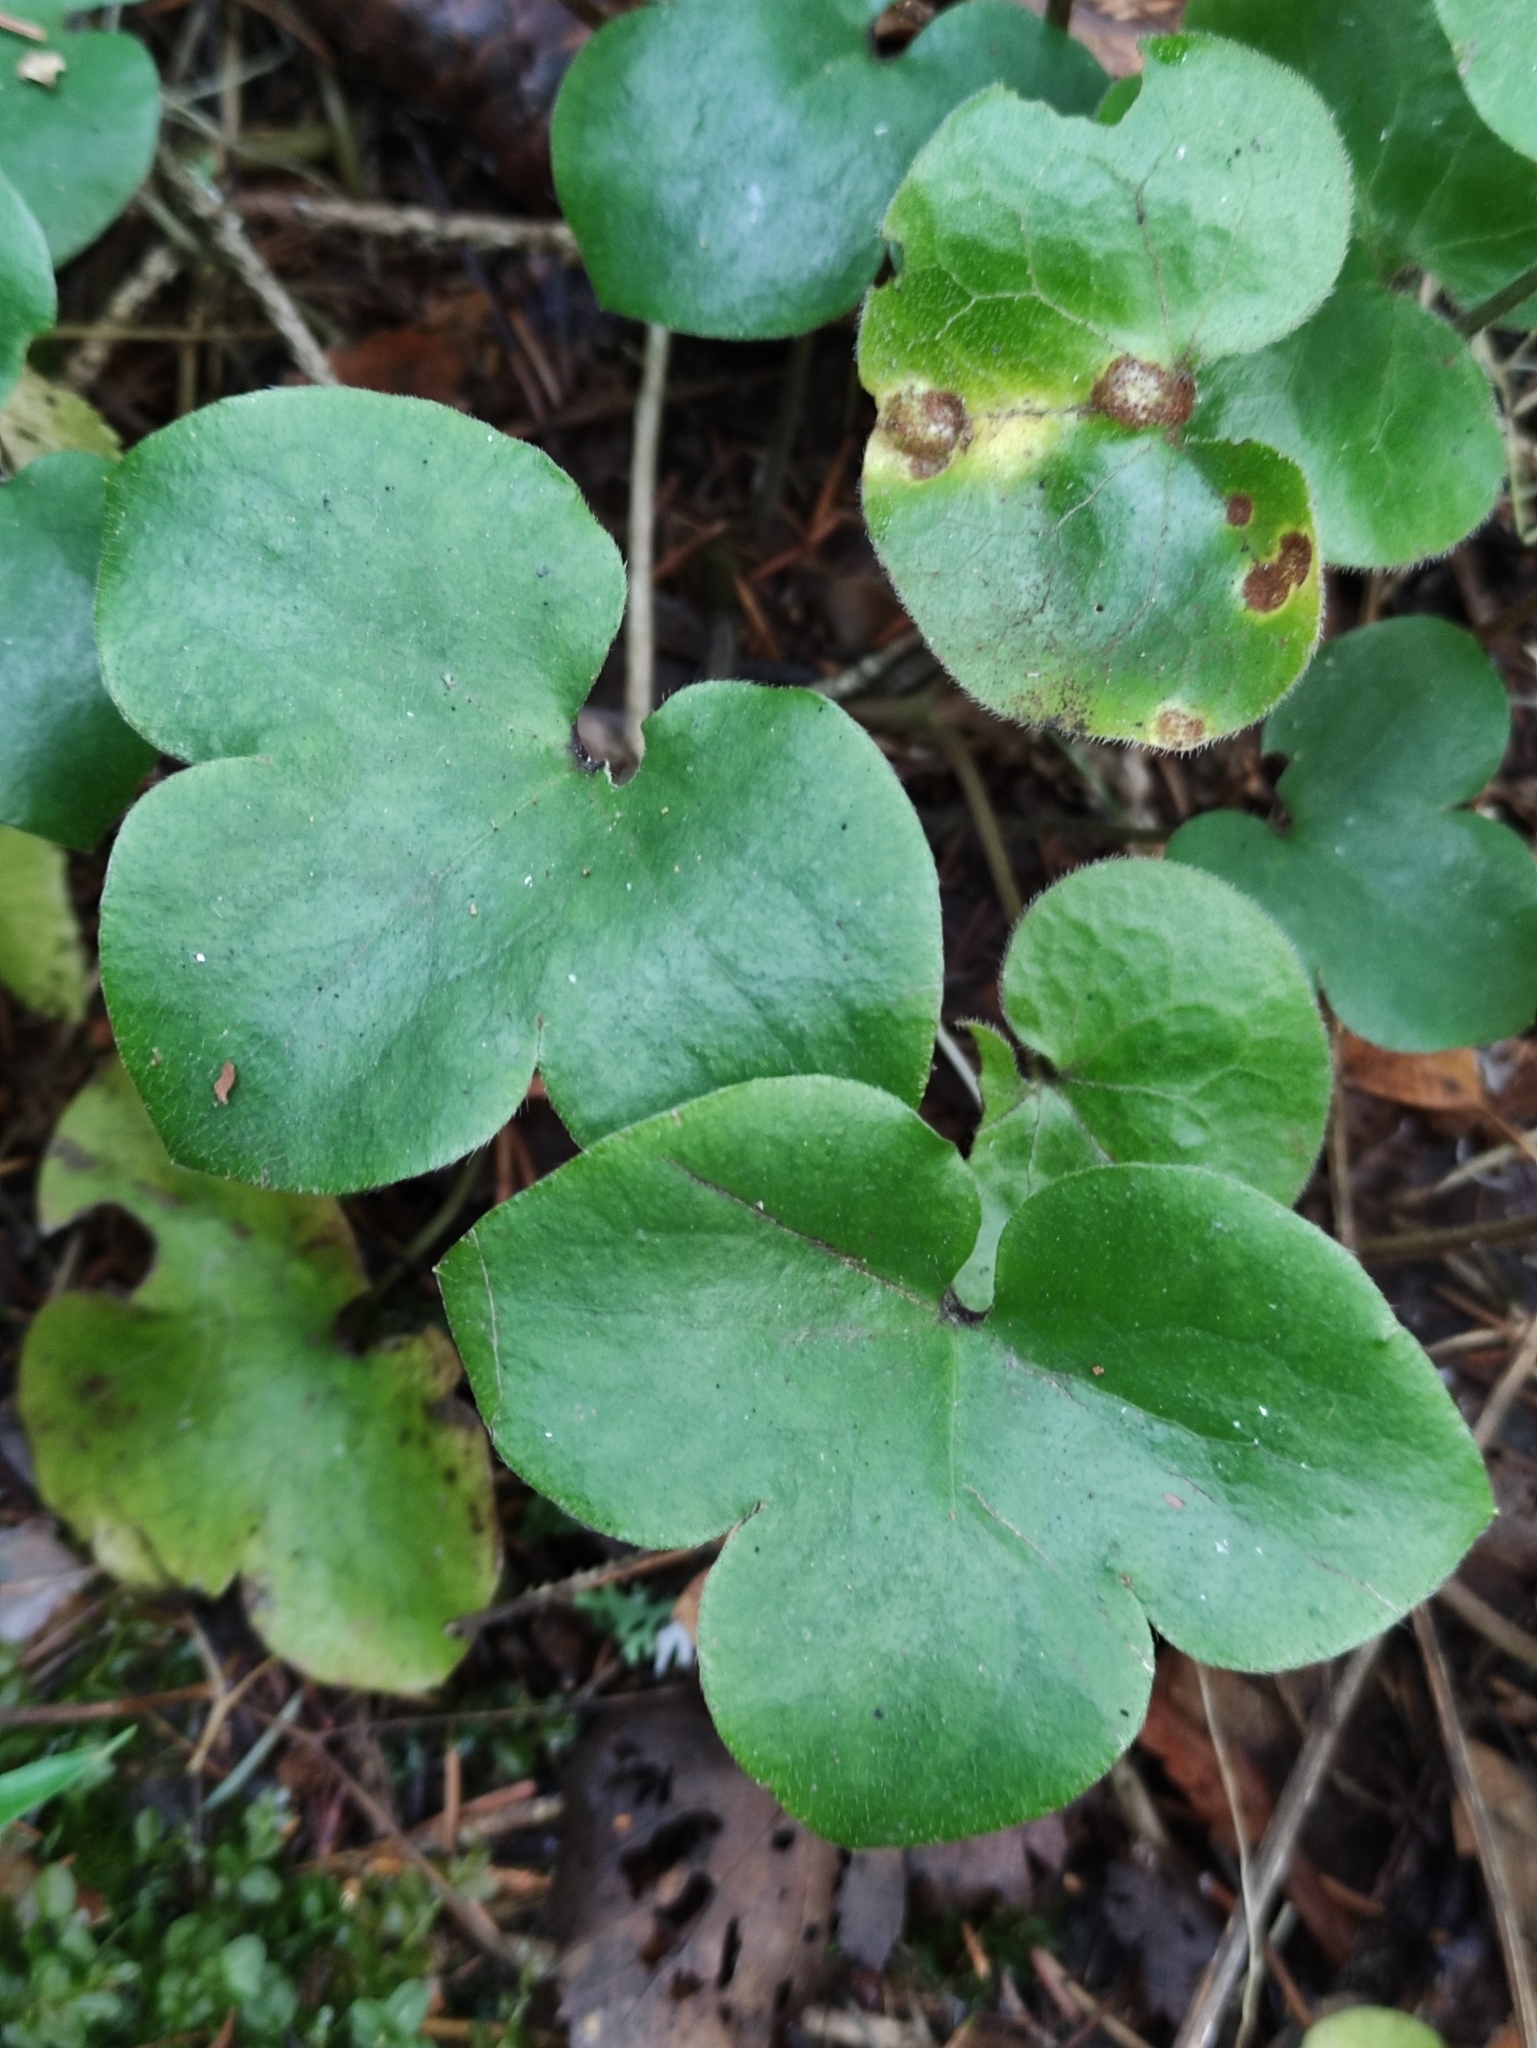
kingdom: Plantae
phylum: Tracheophyta
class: Magnoliopsida
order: Ranunculales
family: Ranunculaceae
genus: Hepatica
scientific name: Hepatica nobilis
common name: Liverleaf
